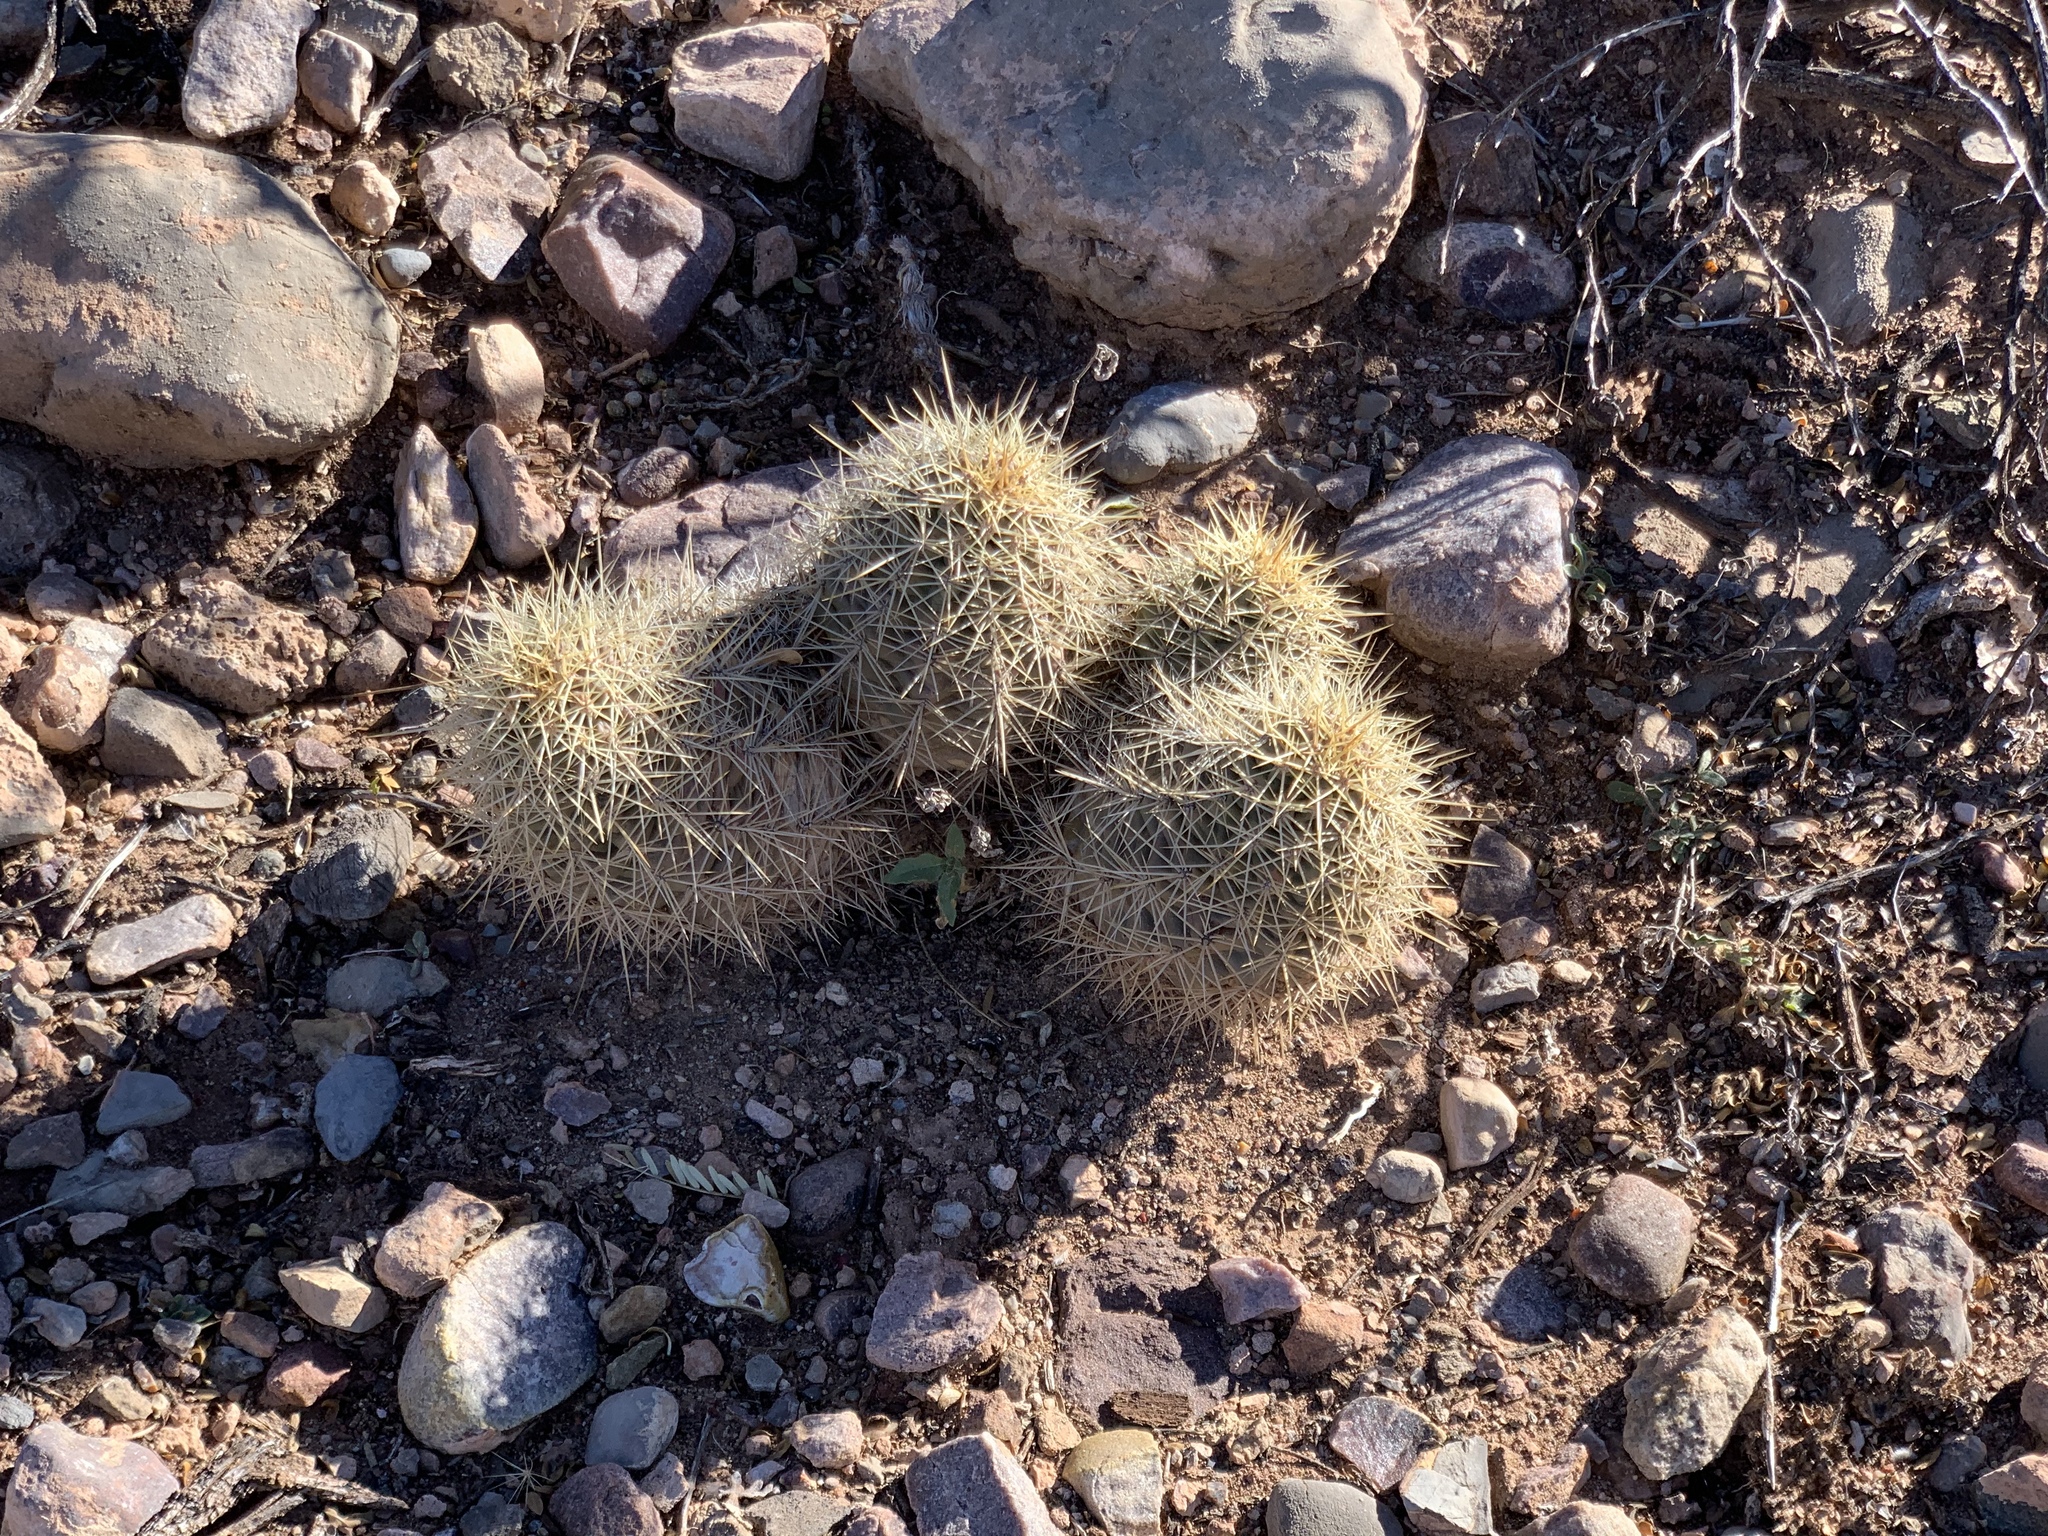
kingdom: Plantae
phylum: Tracheophyta
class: Magnoliopsida
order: Caryophyllales
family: Cactaceae
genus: Echinocereus
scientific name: Echinocereus coccineus
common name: Scarlet hedgehog cactus
